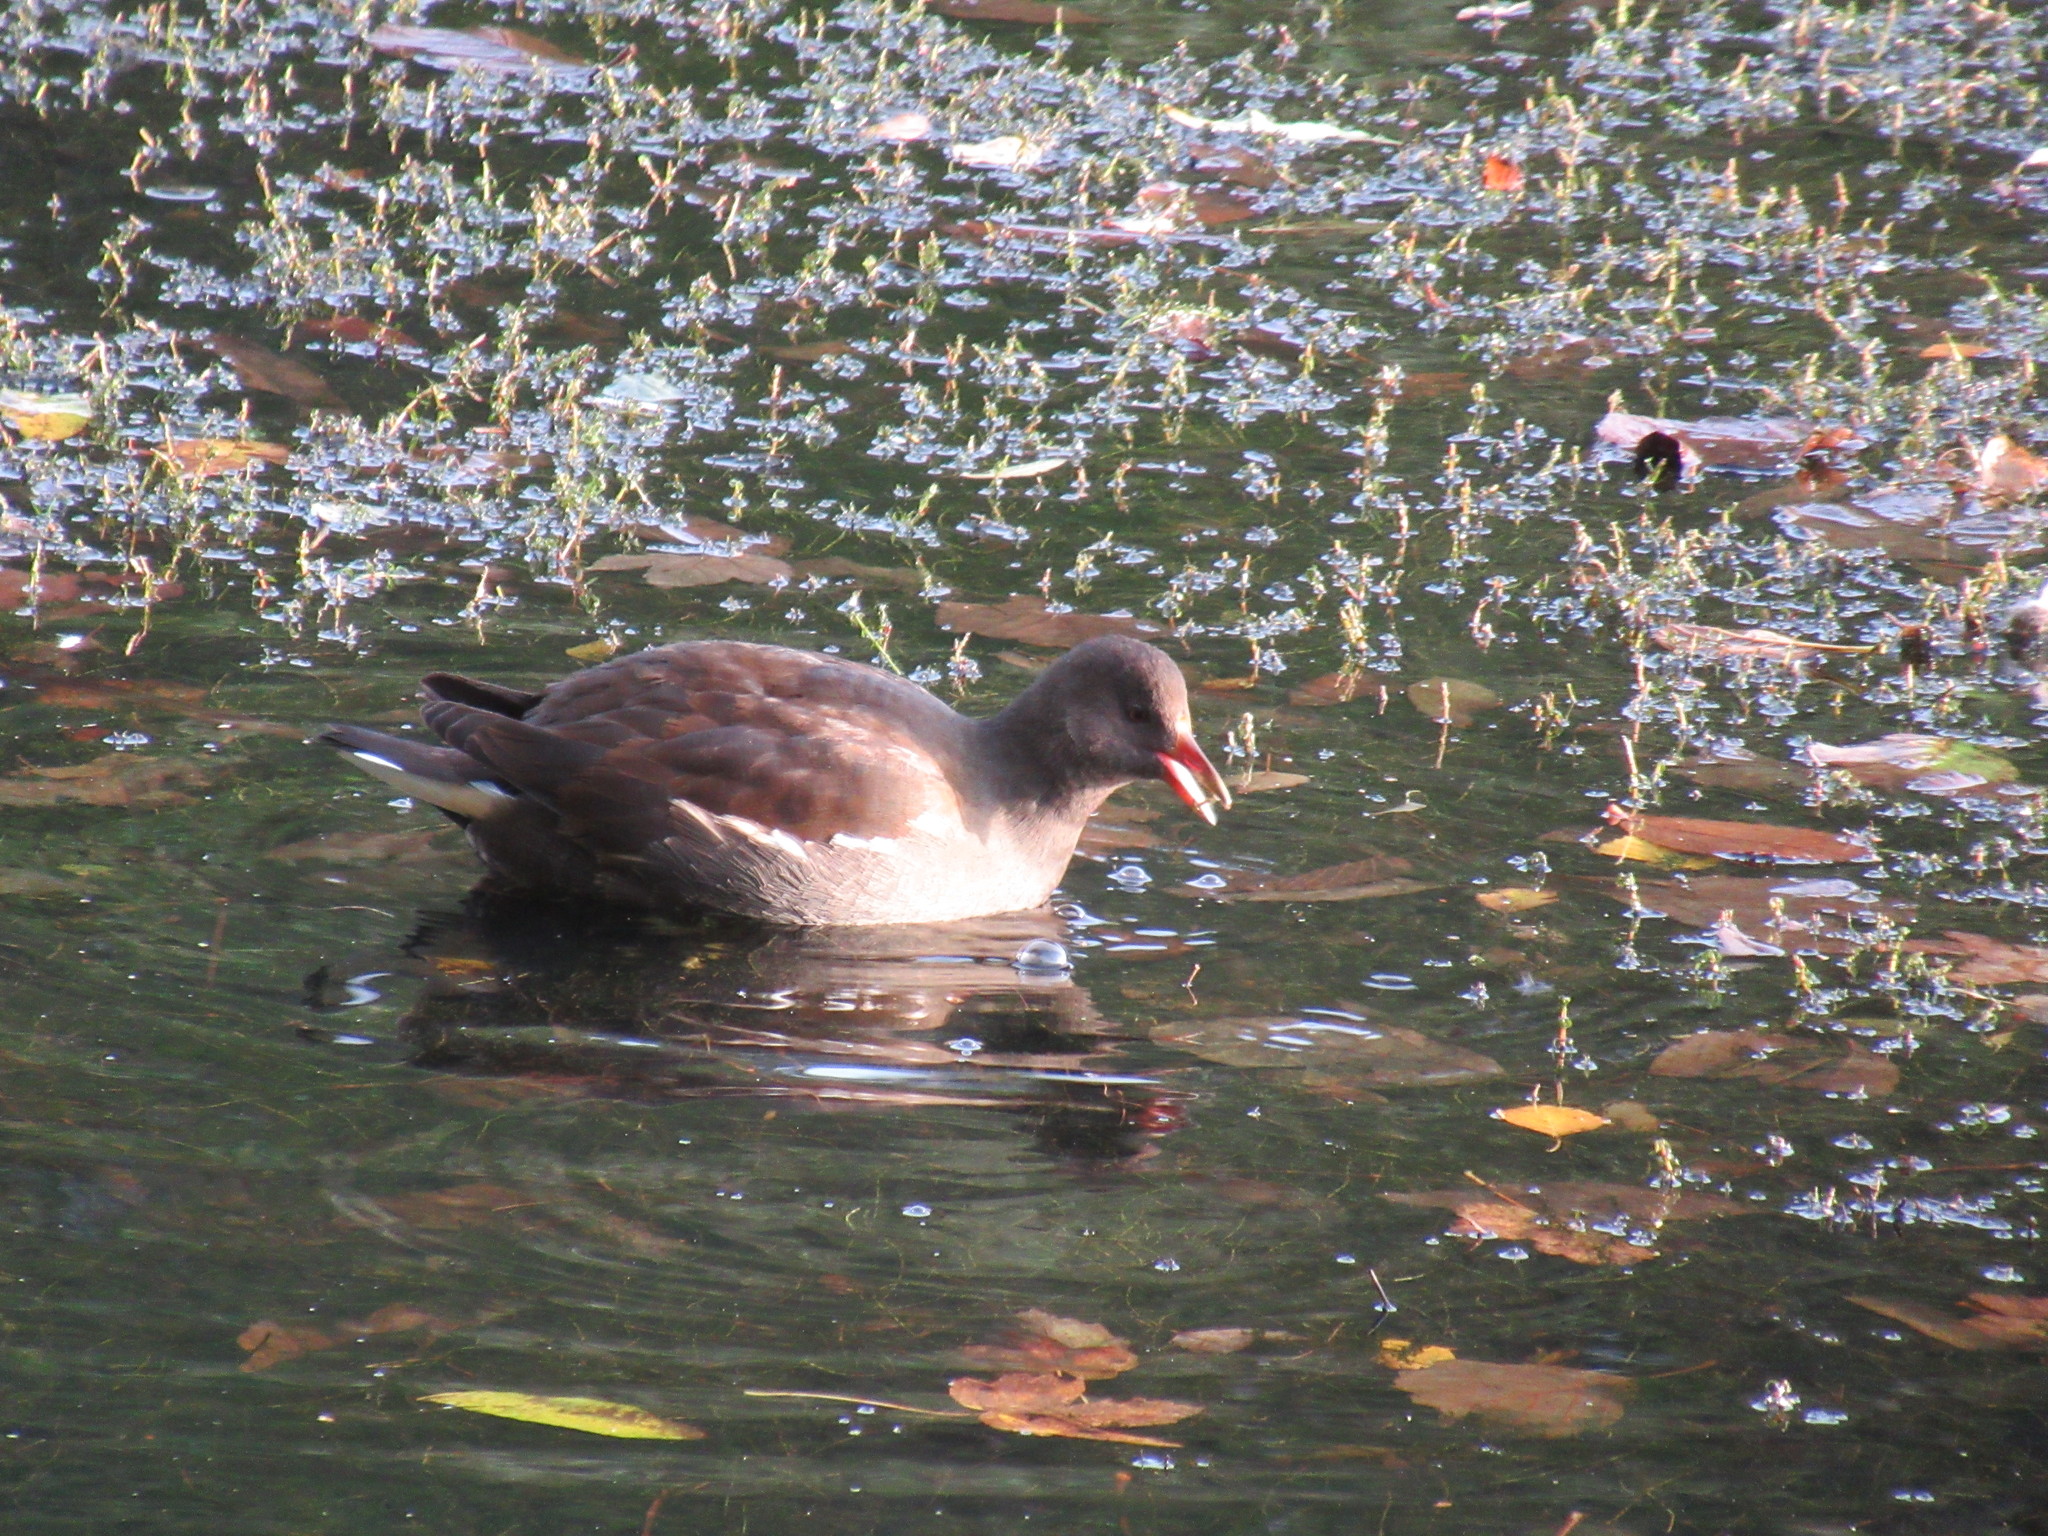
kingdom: Animalia
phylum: Chordata
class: Aves
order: Gruiformes
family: Rallidae
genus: Gallinula
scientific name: Gallinula chloropus
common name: Common moorhen
